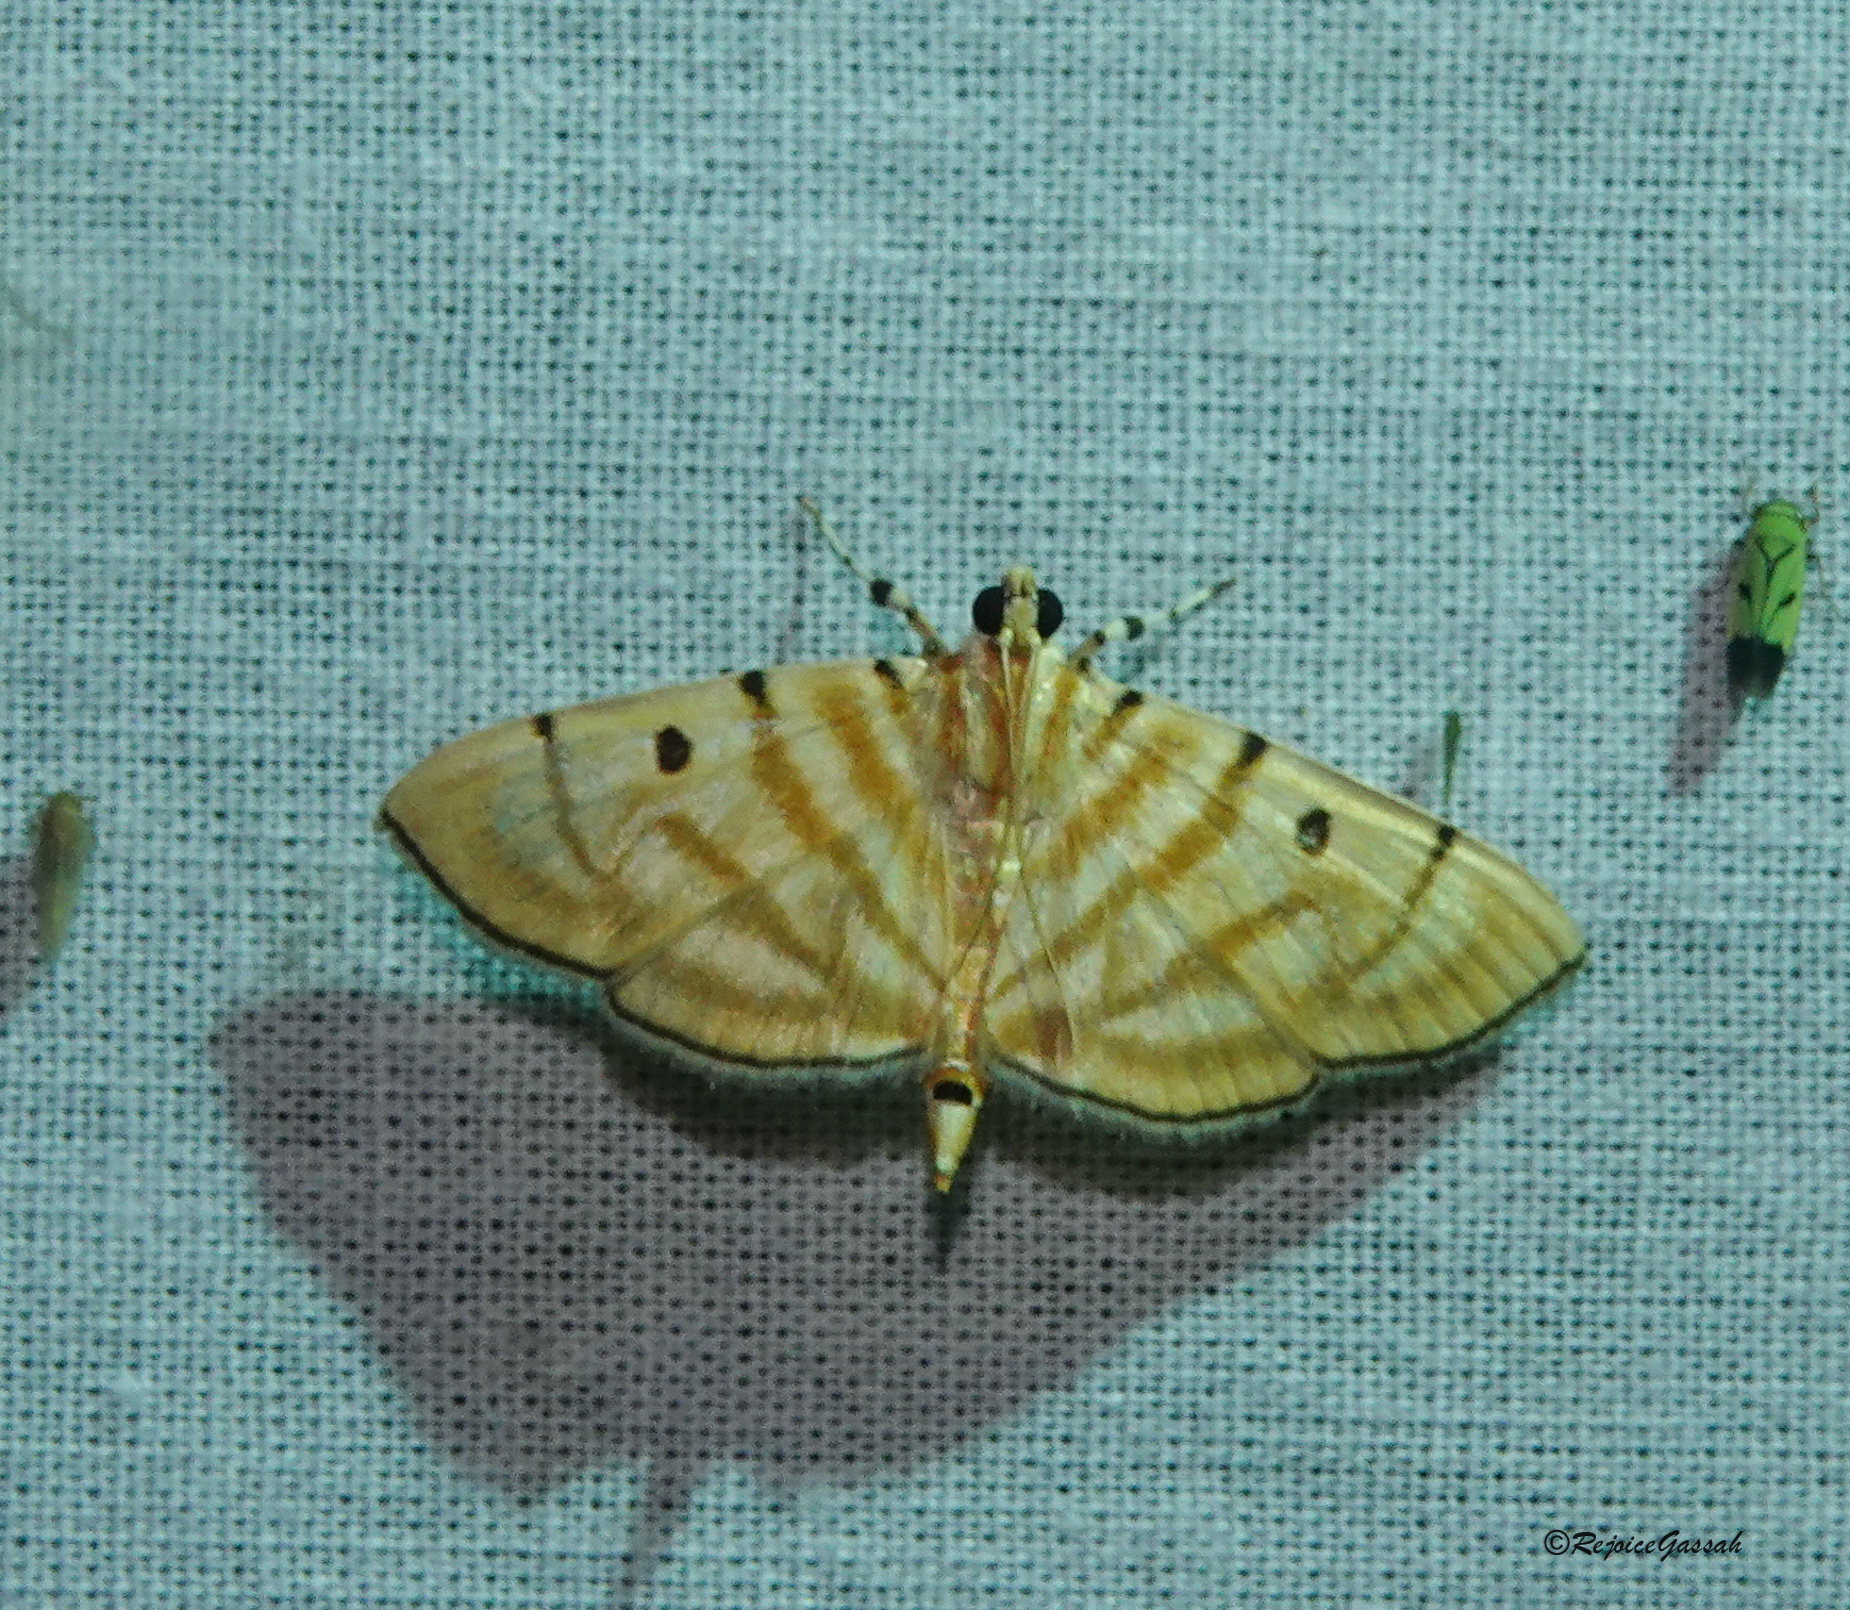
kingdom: Animalia
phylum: Arthropoda
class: Insecta
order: Lepidoptera
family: Crambidae
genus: Orthospila
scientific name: Orthospila orissusalis
